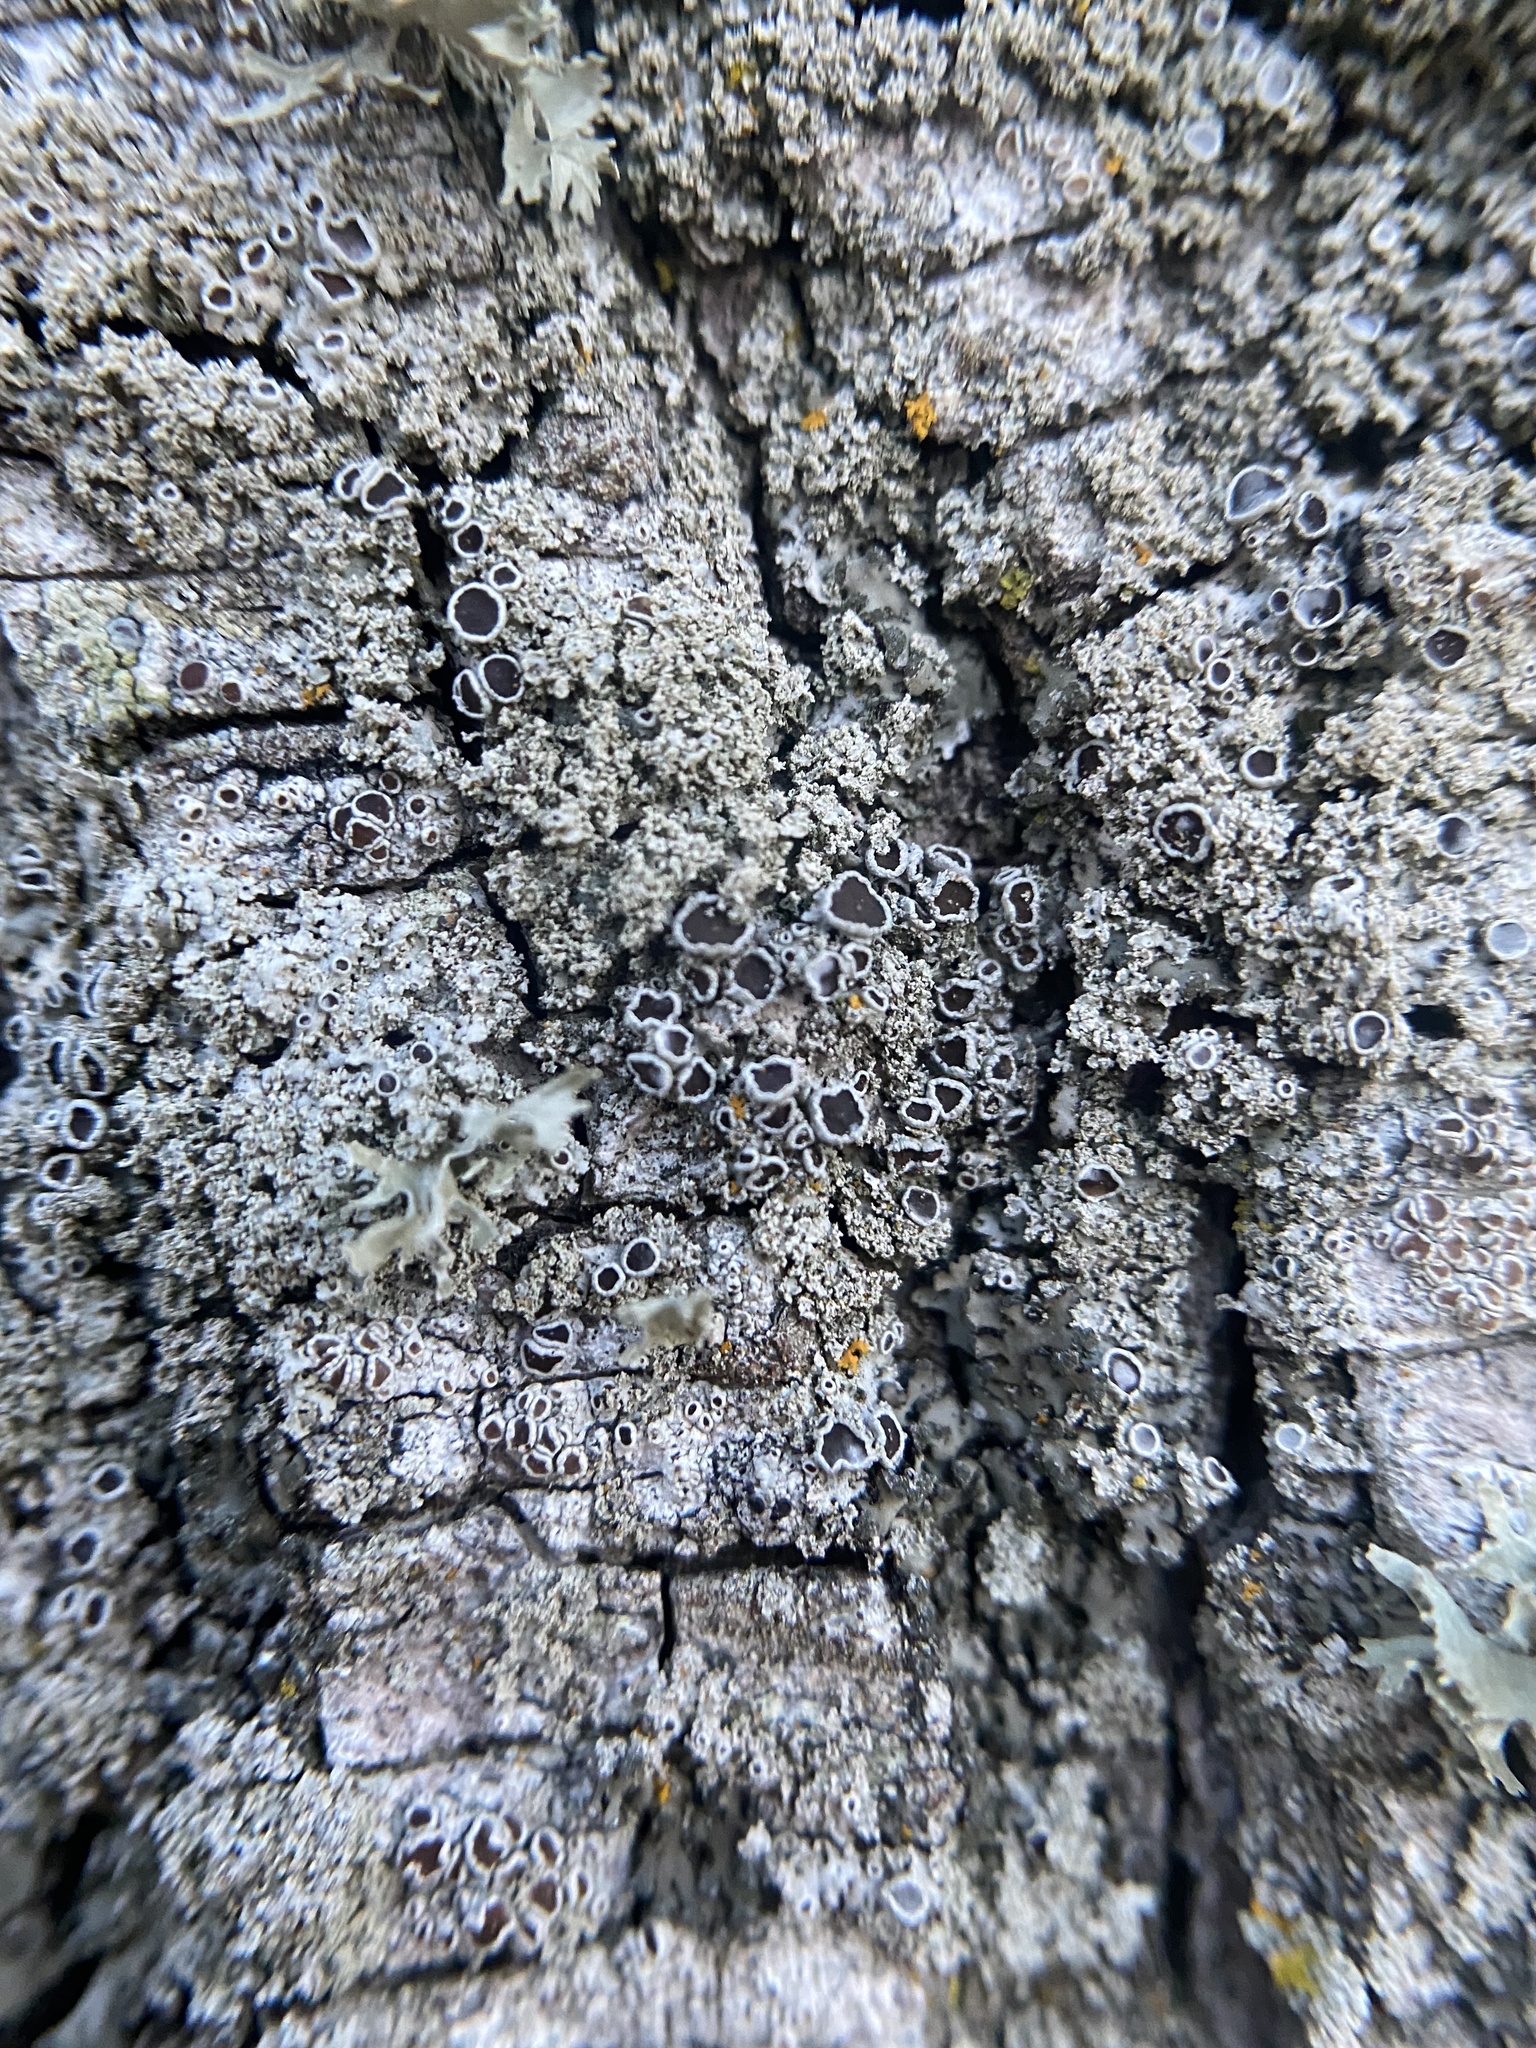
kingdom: Fungi
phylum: Ascomycota
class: Lecanoromycetes
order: Caliciales
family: Physciaceae
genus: Physcia
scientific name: Physcia millegrana
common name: Rosette lichen
